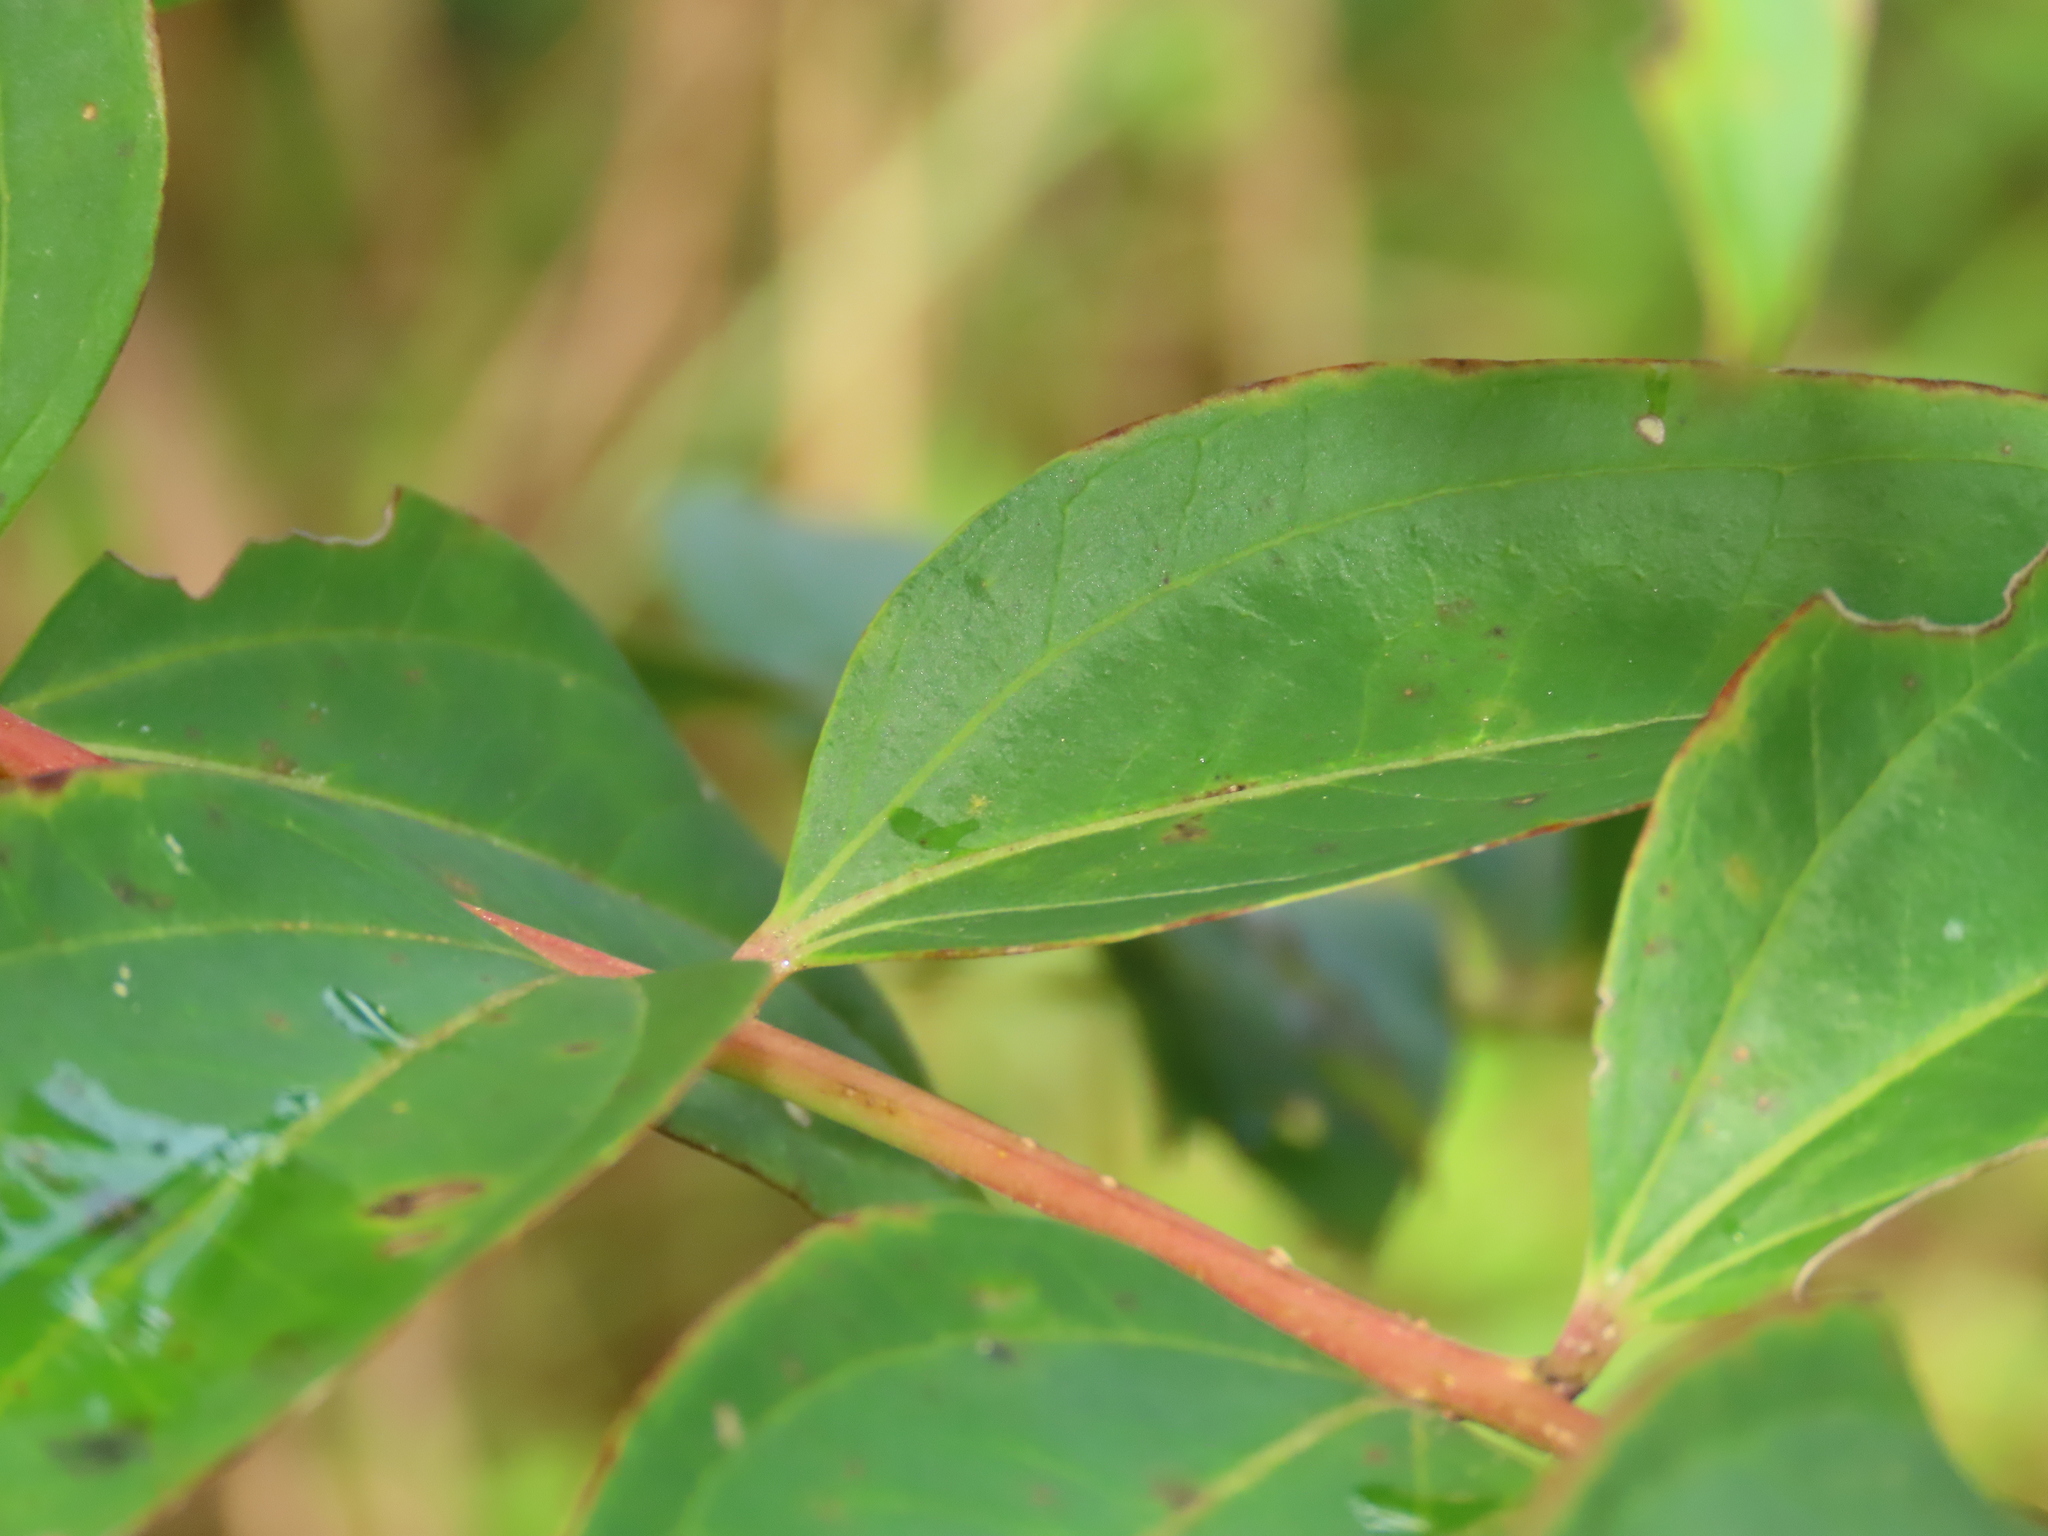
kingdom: Plantae
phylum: Tracheophyta
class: Magnoliopsida
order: Cucurbitales
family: Coriariaceae
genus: Coriaria
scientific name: Coriaria japonica
